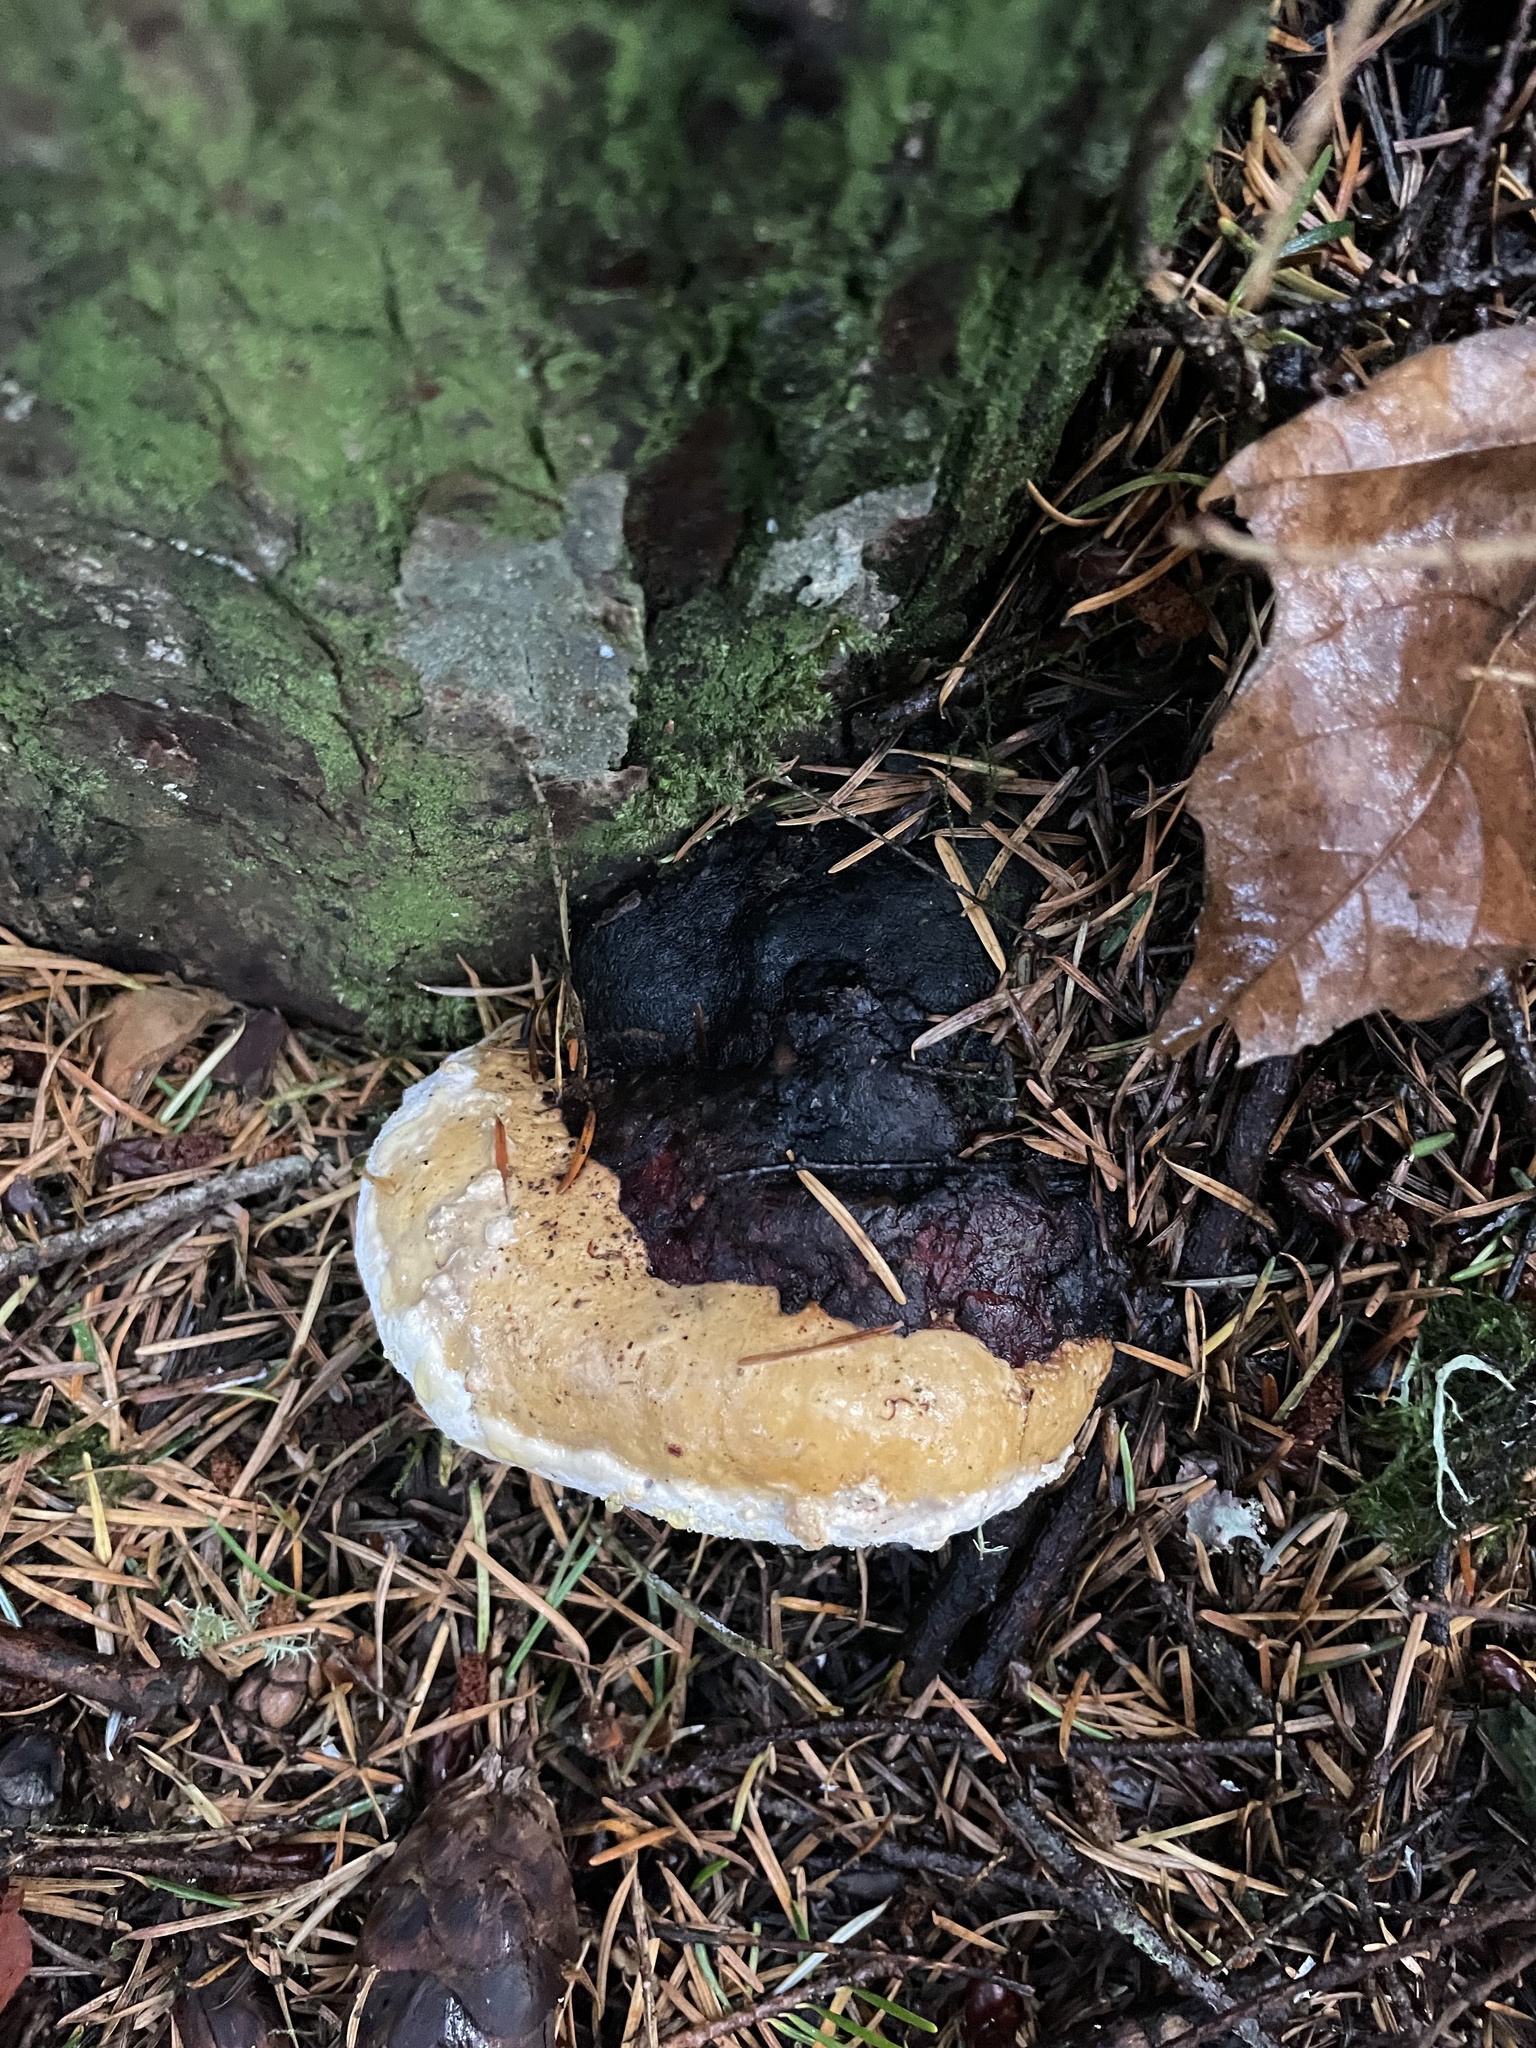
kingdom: Fungi
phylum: Basidiomycota
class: Agaricomycetes
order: Polyporales
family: Fomitopsidaceae
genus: Fomitopsis
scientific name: Fomitopsis mounceae
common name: Northern red belt
